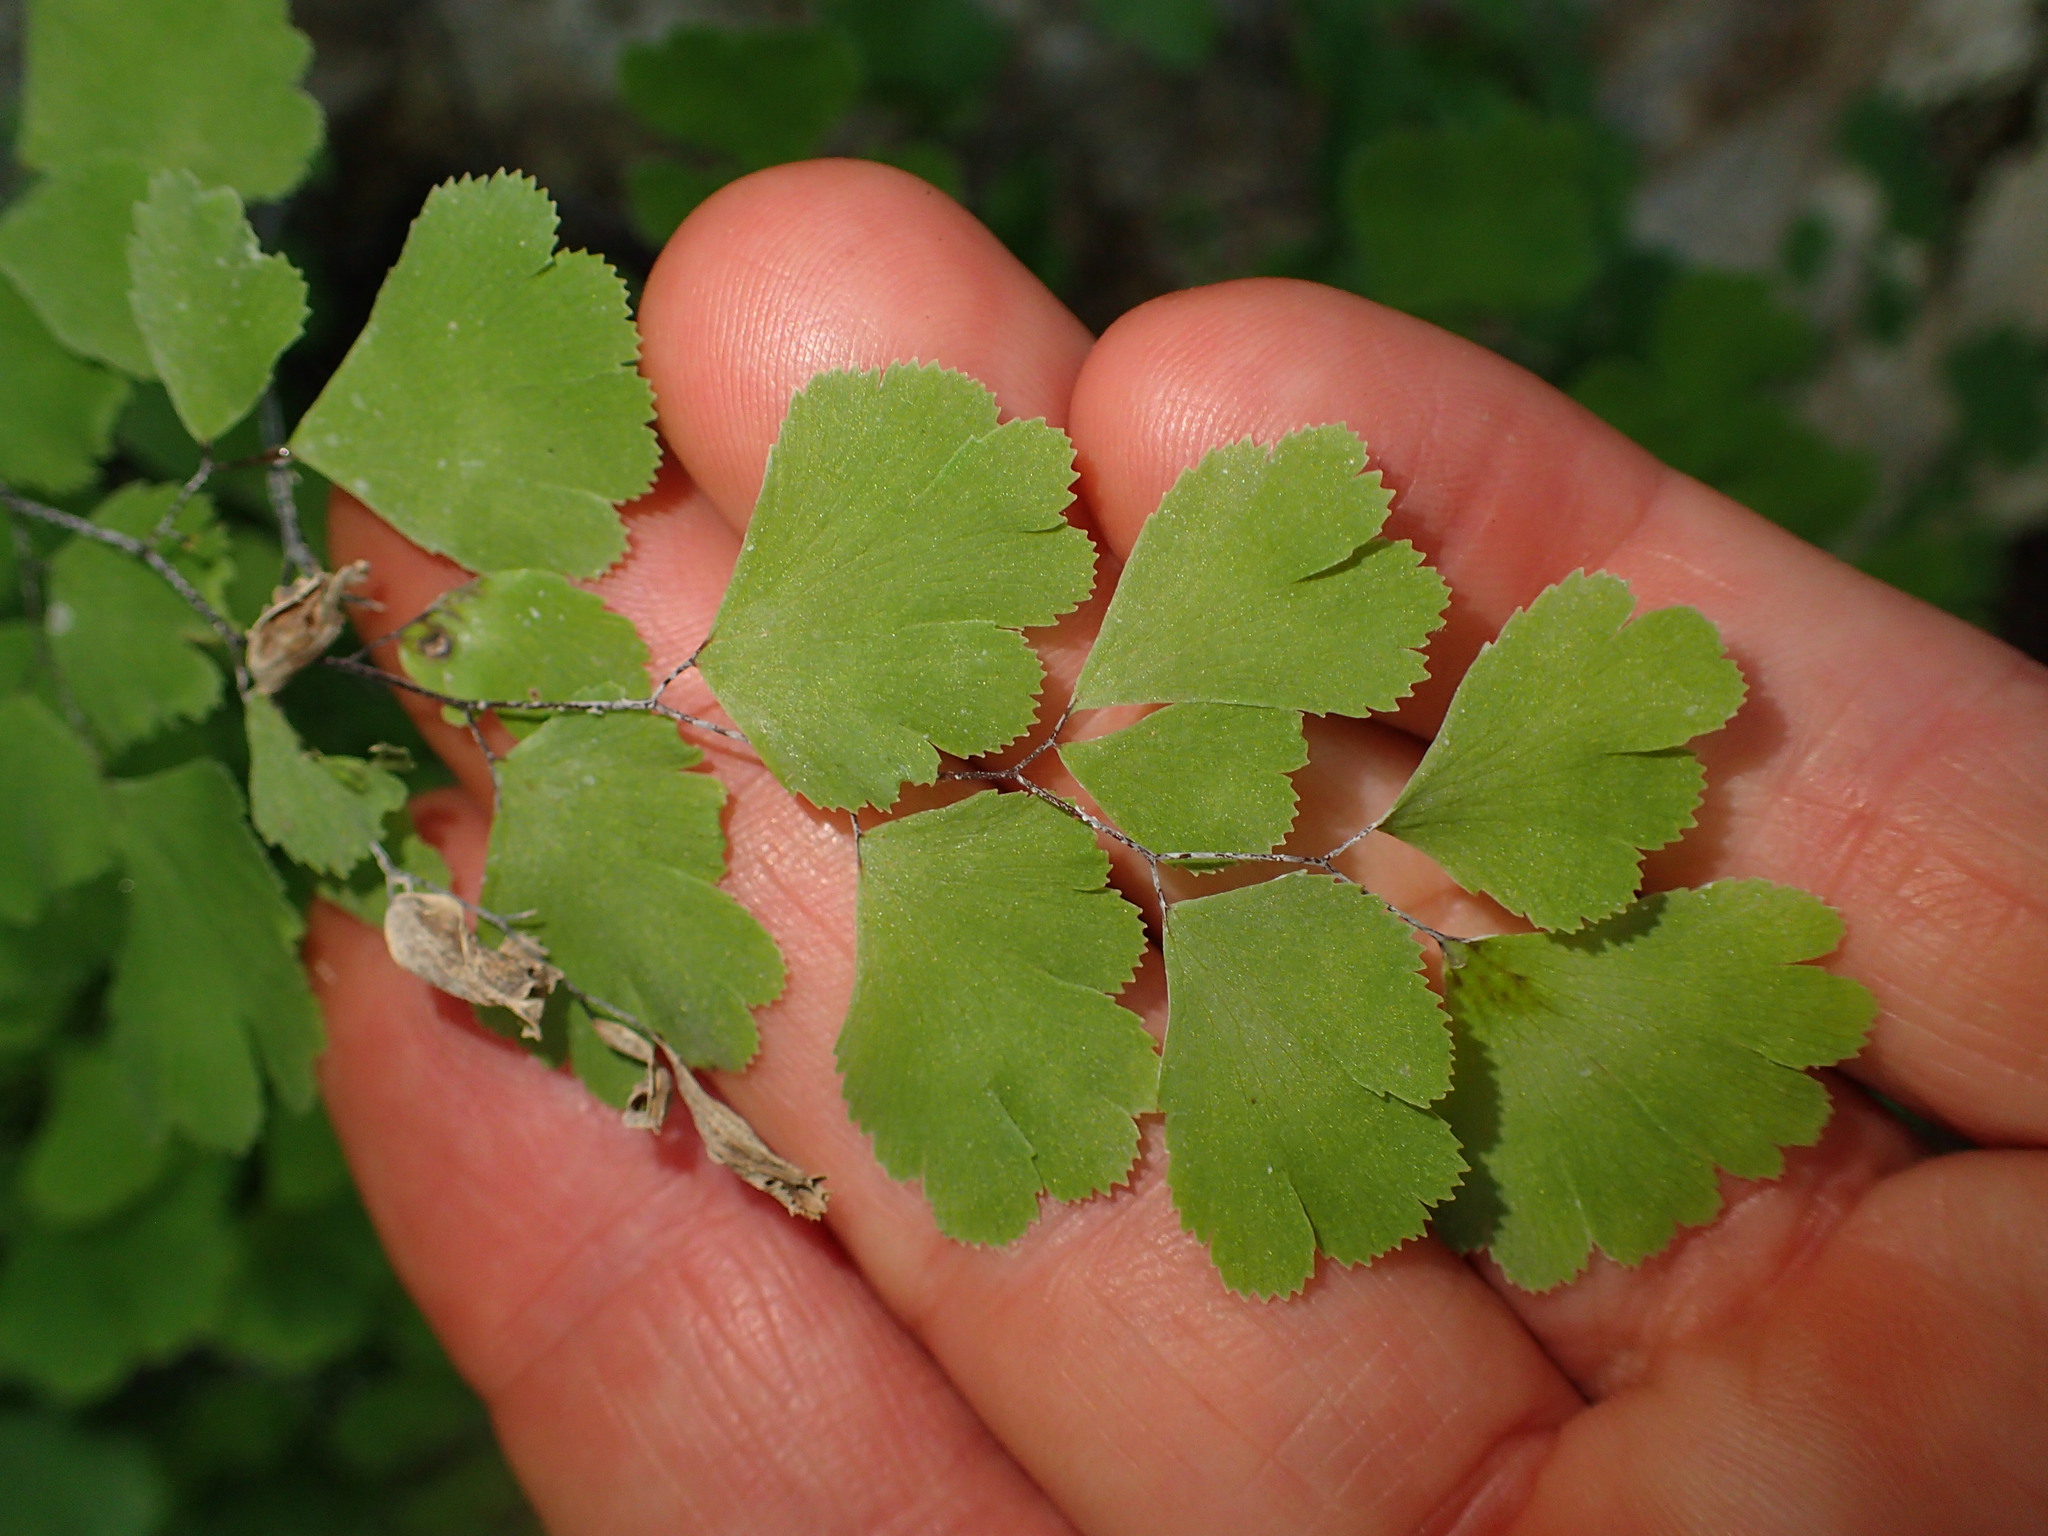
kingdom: Plantae
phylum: Tracheophyta
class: Polypodiopsida
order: Polypodiales
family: Pteridaceae
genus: Adiantum
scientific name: Adiantum capillus-veneris
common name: Maidenhair fern
